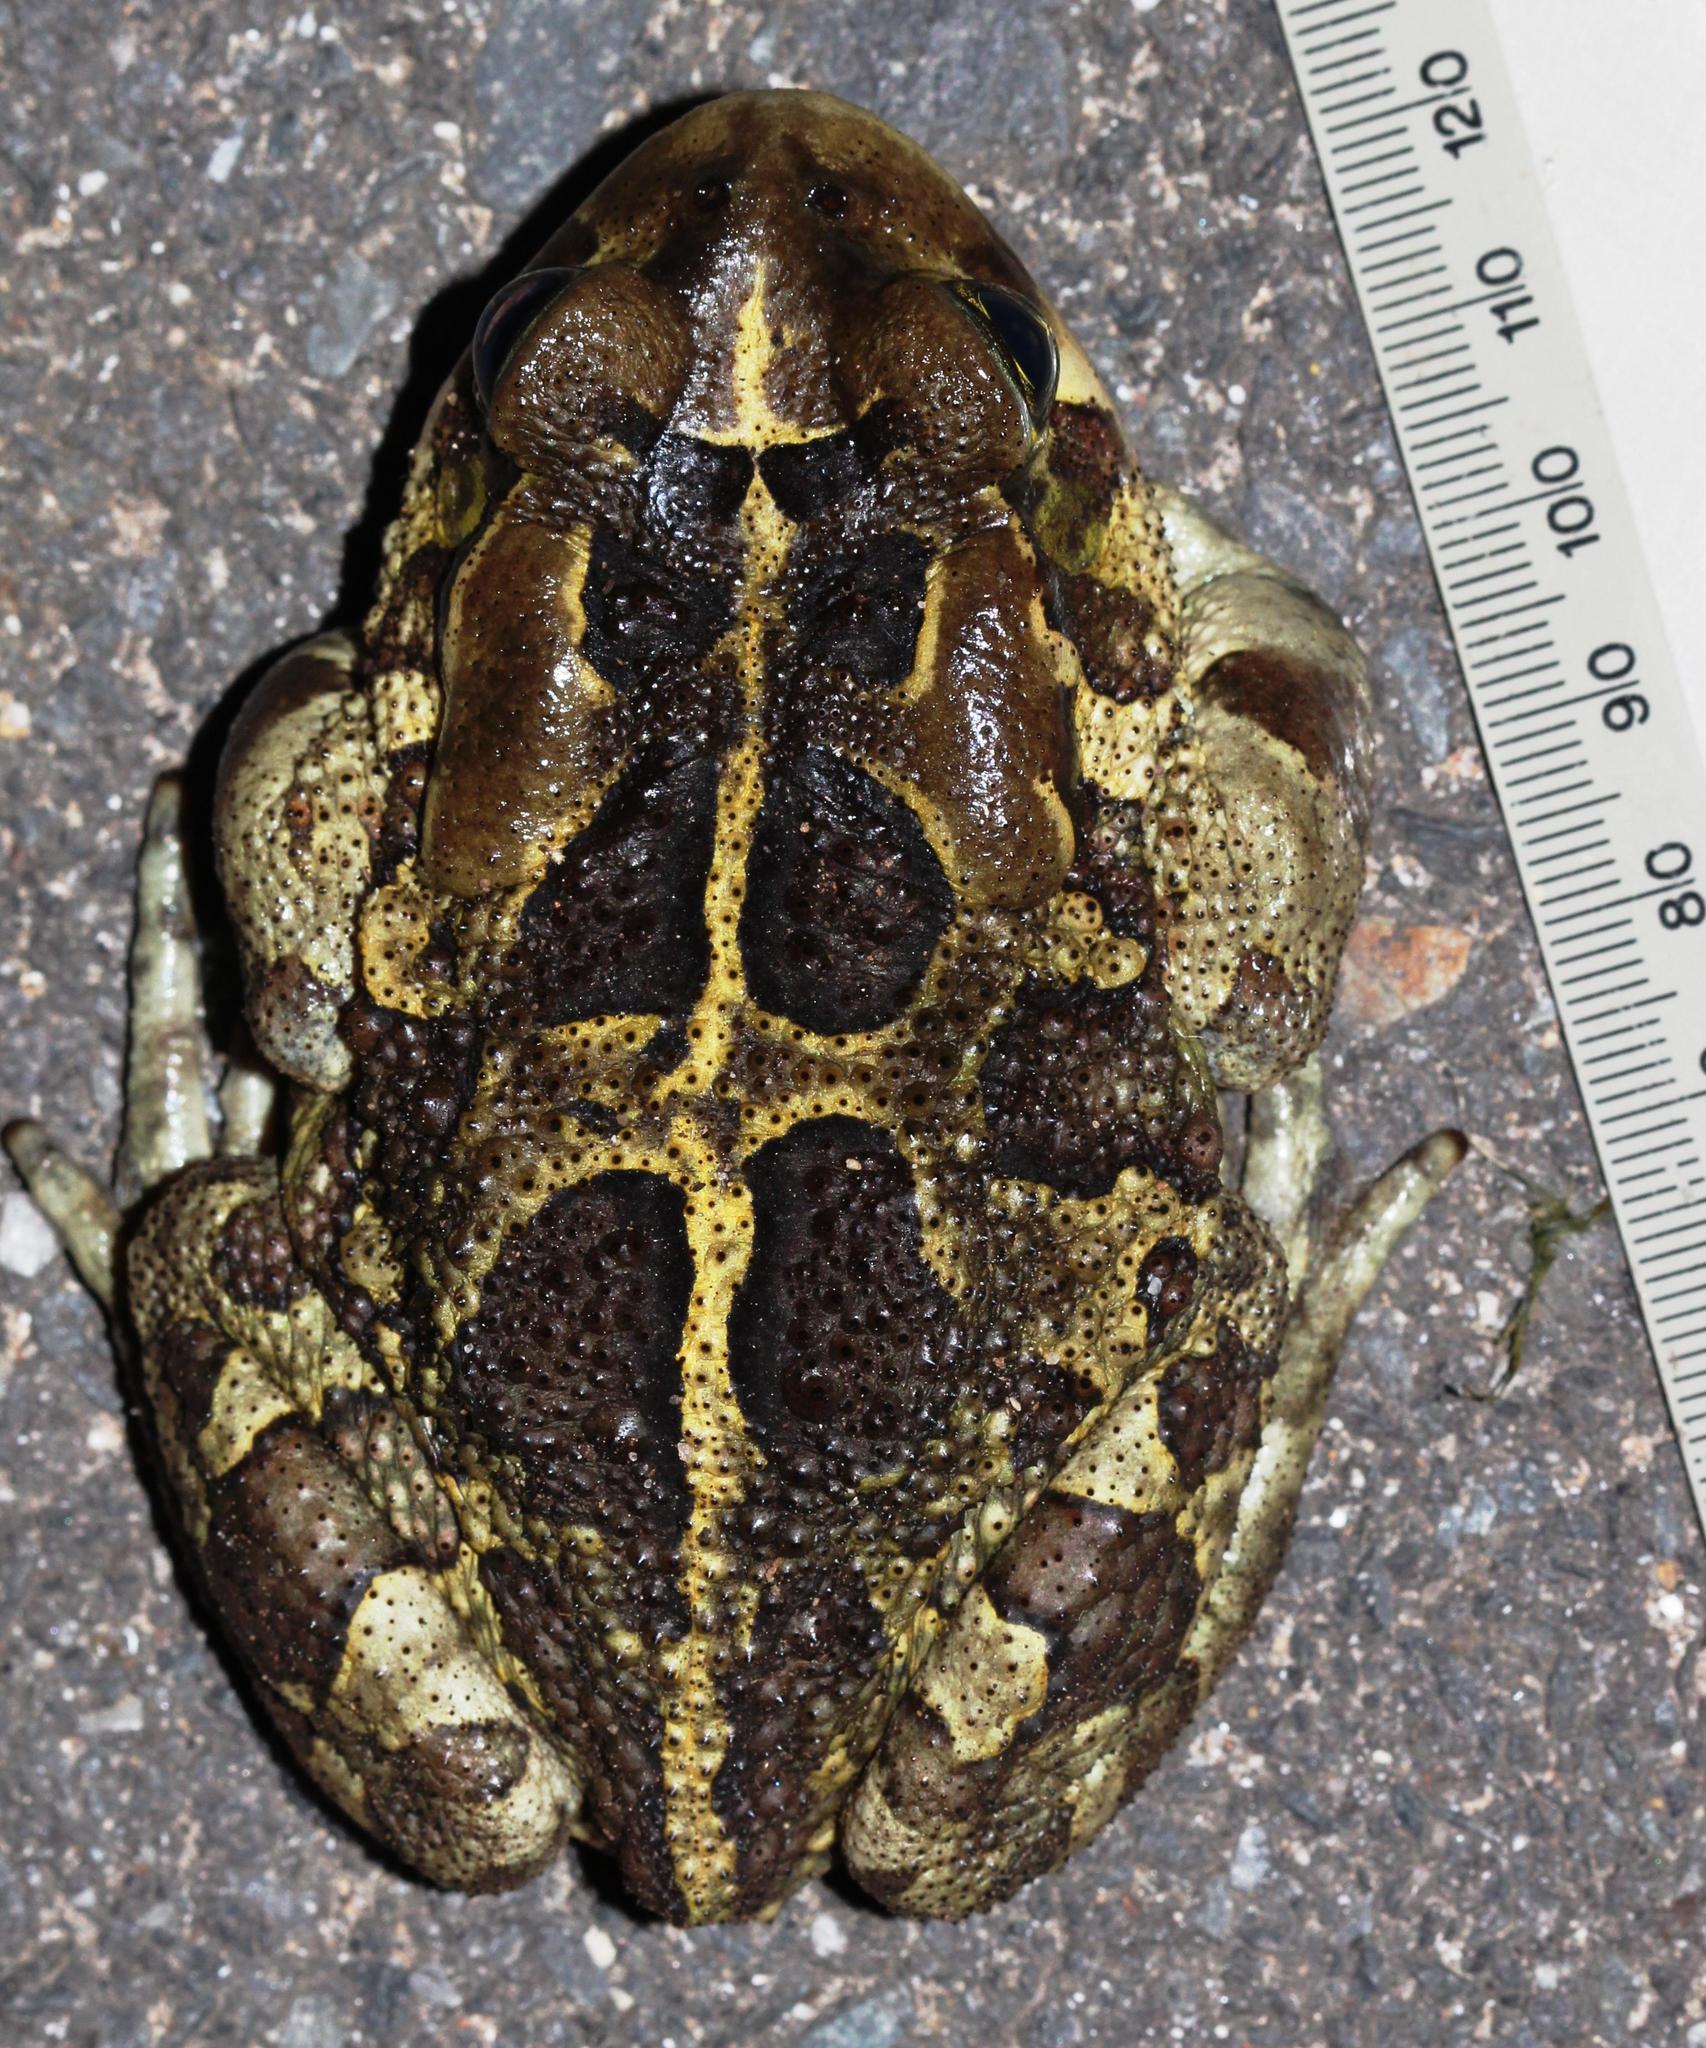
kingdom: Animalia
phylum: Chordata
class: Amphibia
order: Anura
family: Bufonidae
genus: Sclerophrys
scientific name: Sclerophrys pantherina
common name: Panther toad
